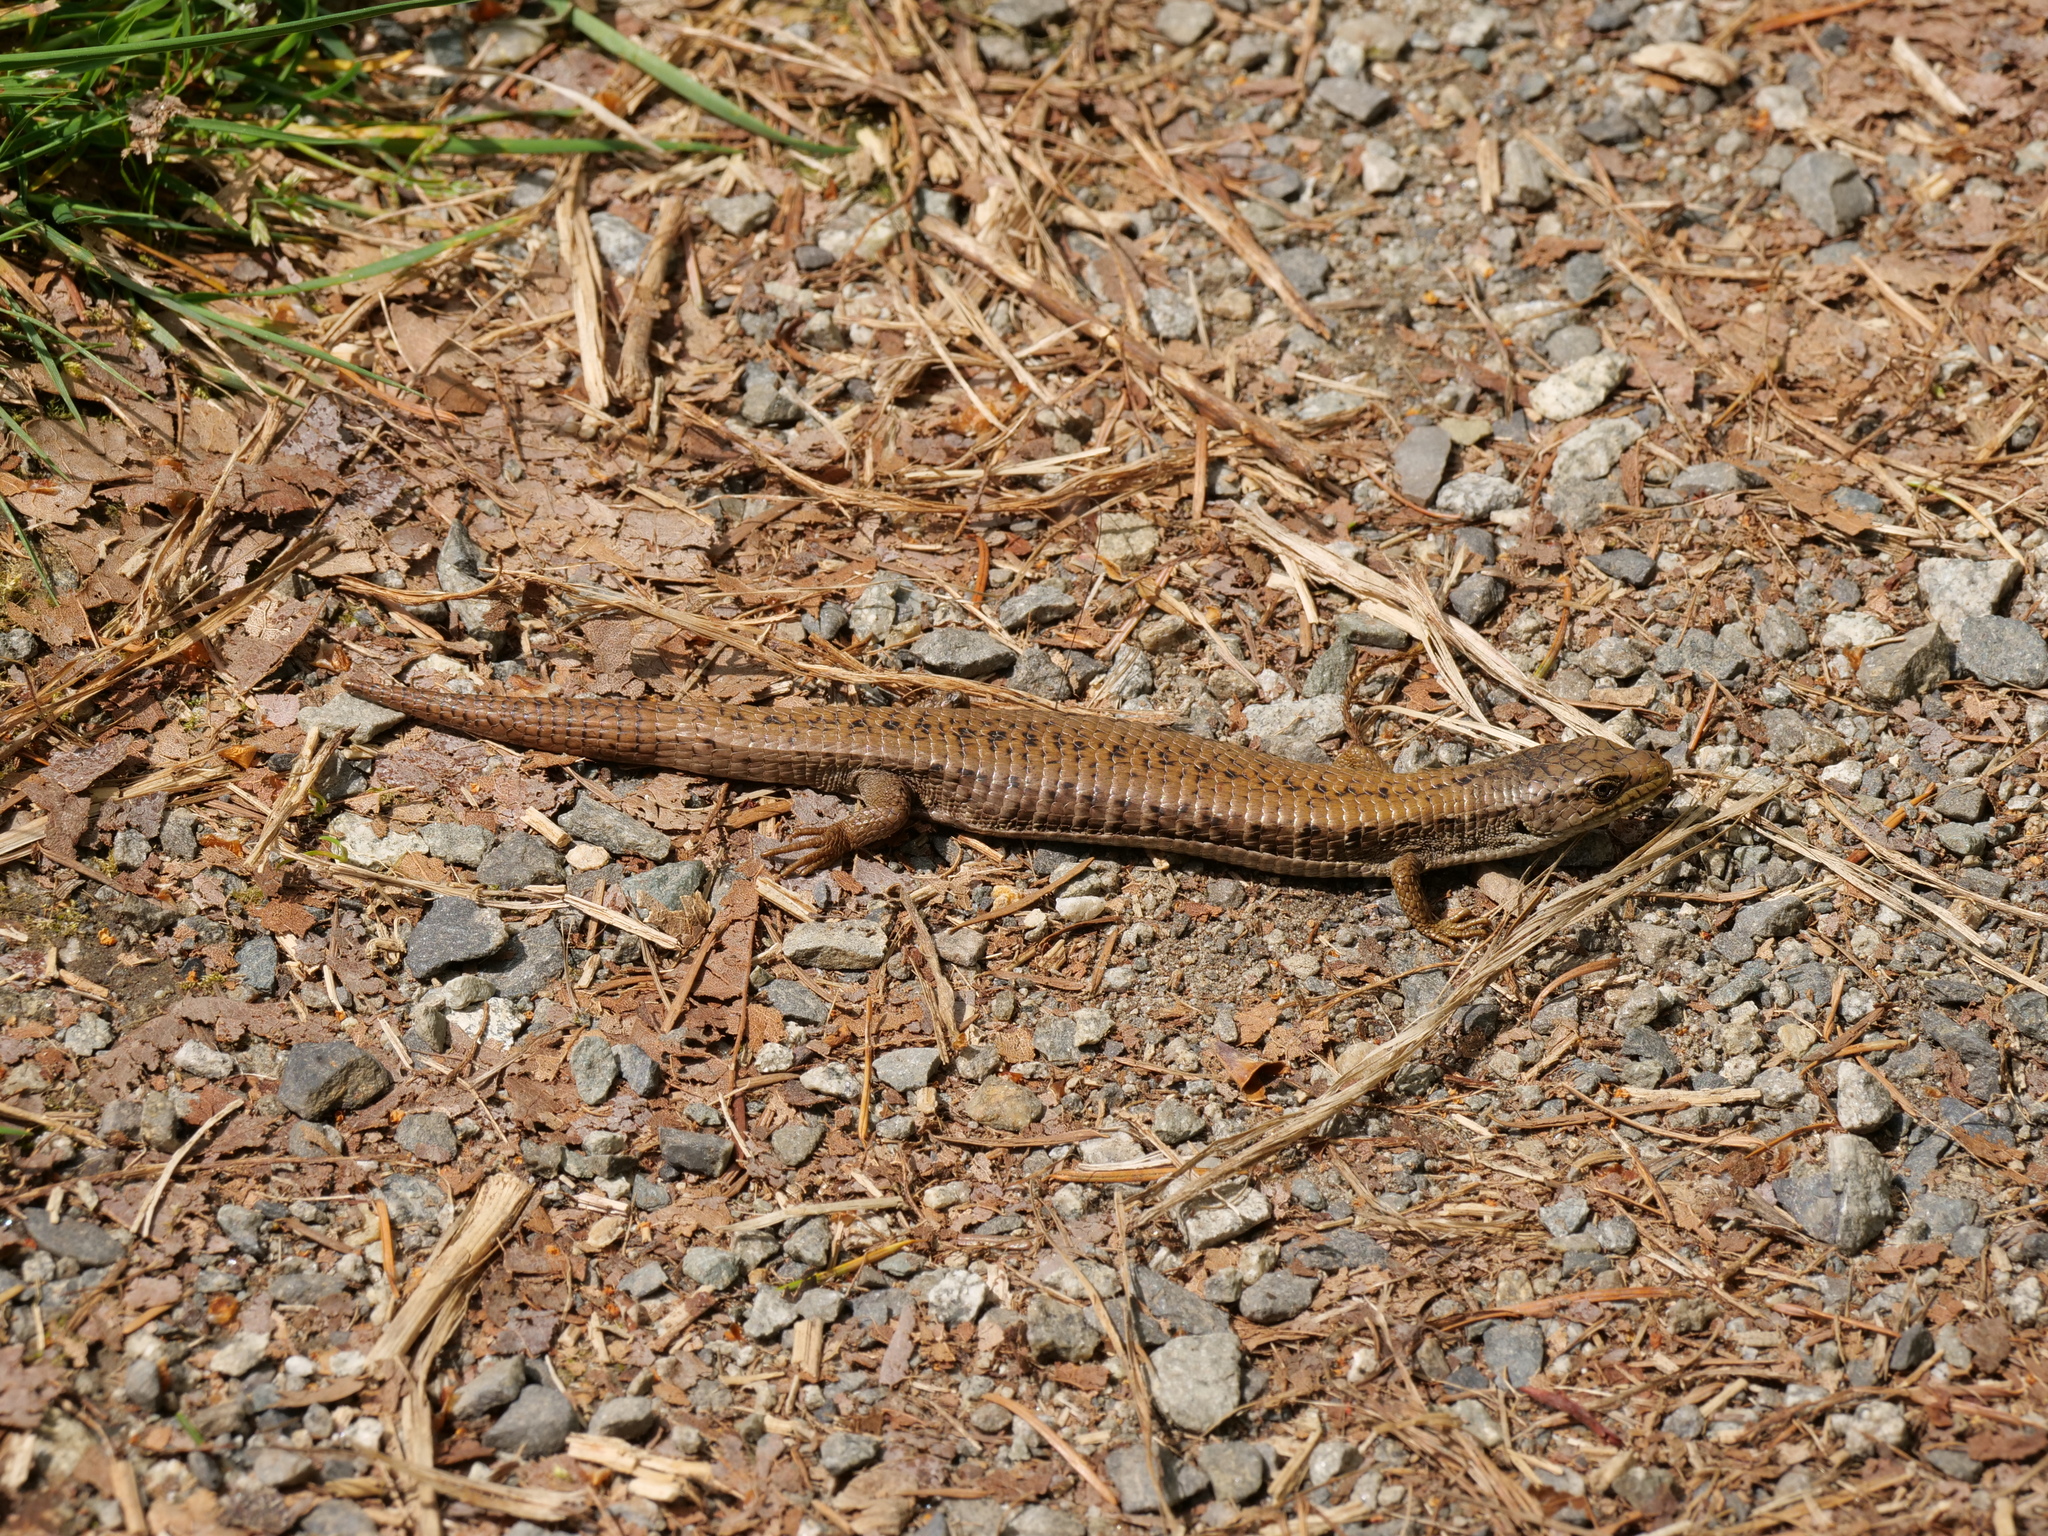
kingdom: Animalia
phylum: Chordata
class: Squamata
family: Anguidae
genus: Elgaria
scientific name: Elgaria coerulea
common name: Northern alligator lizard
